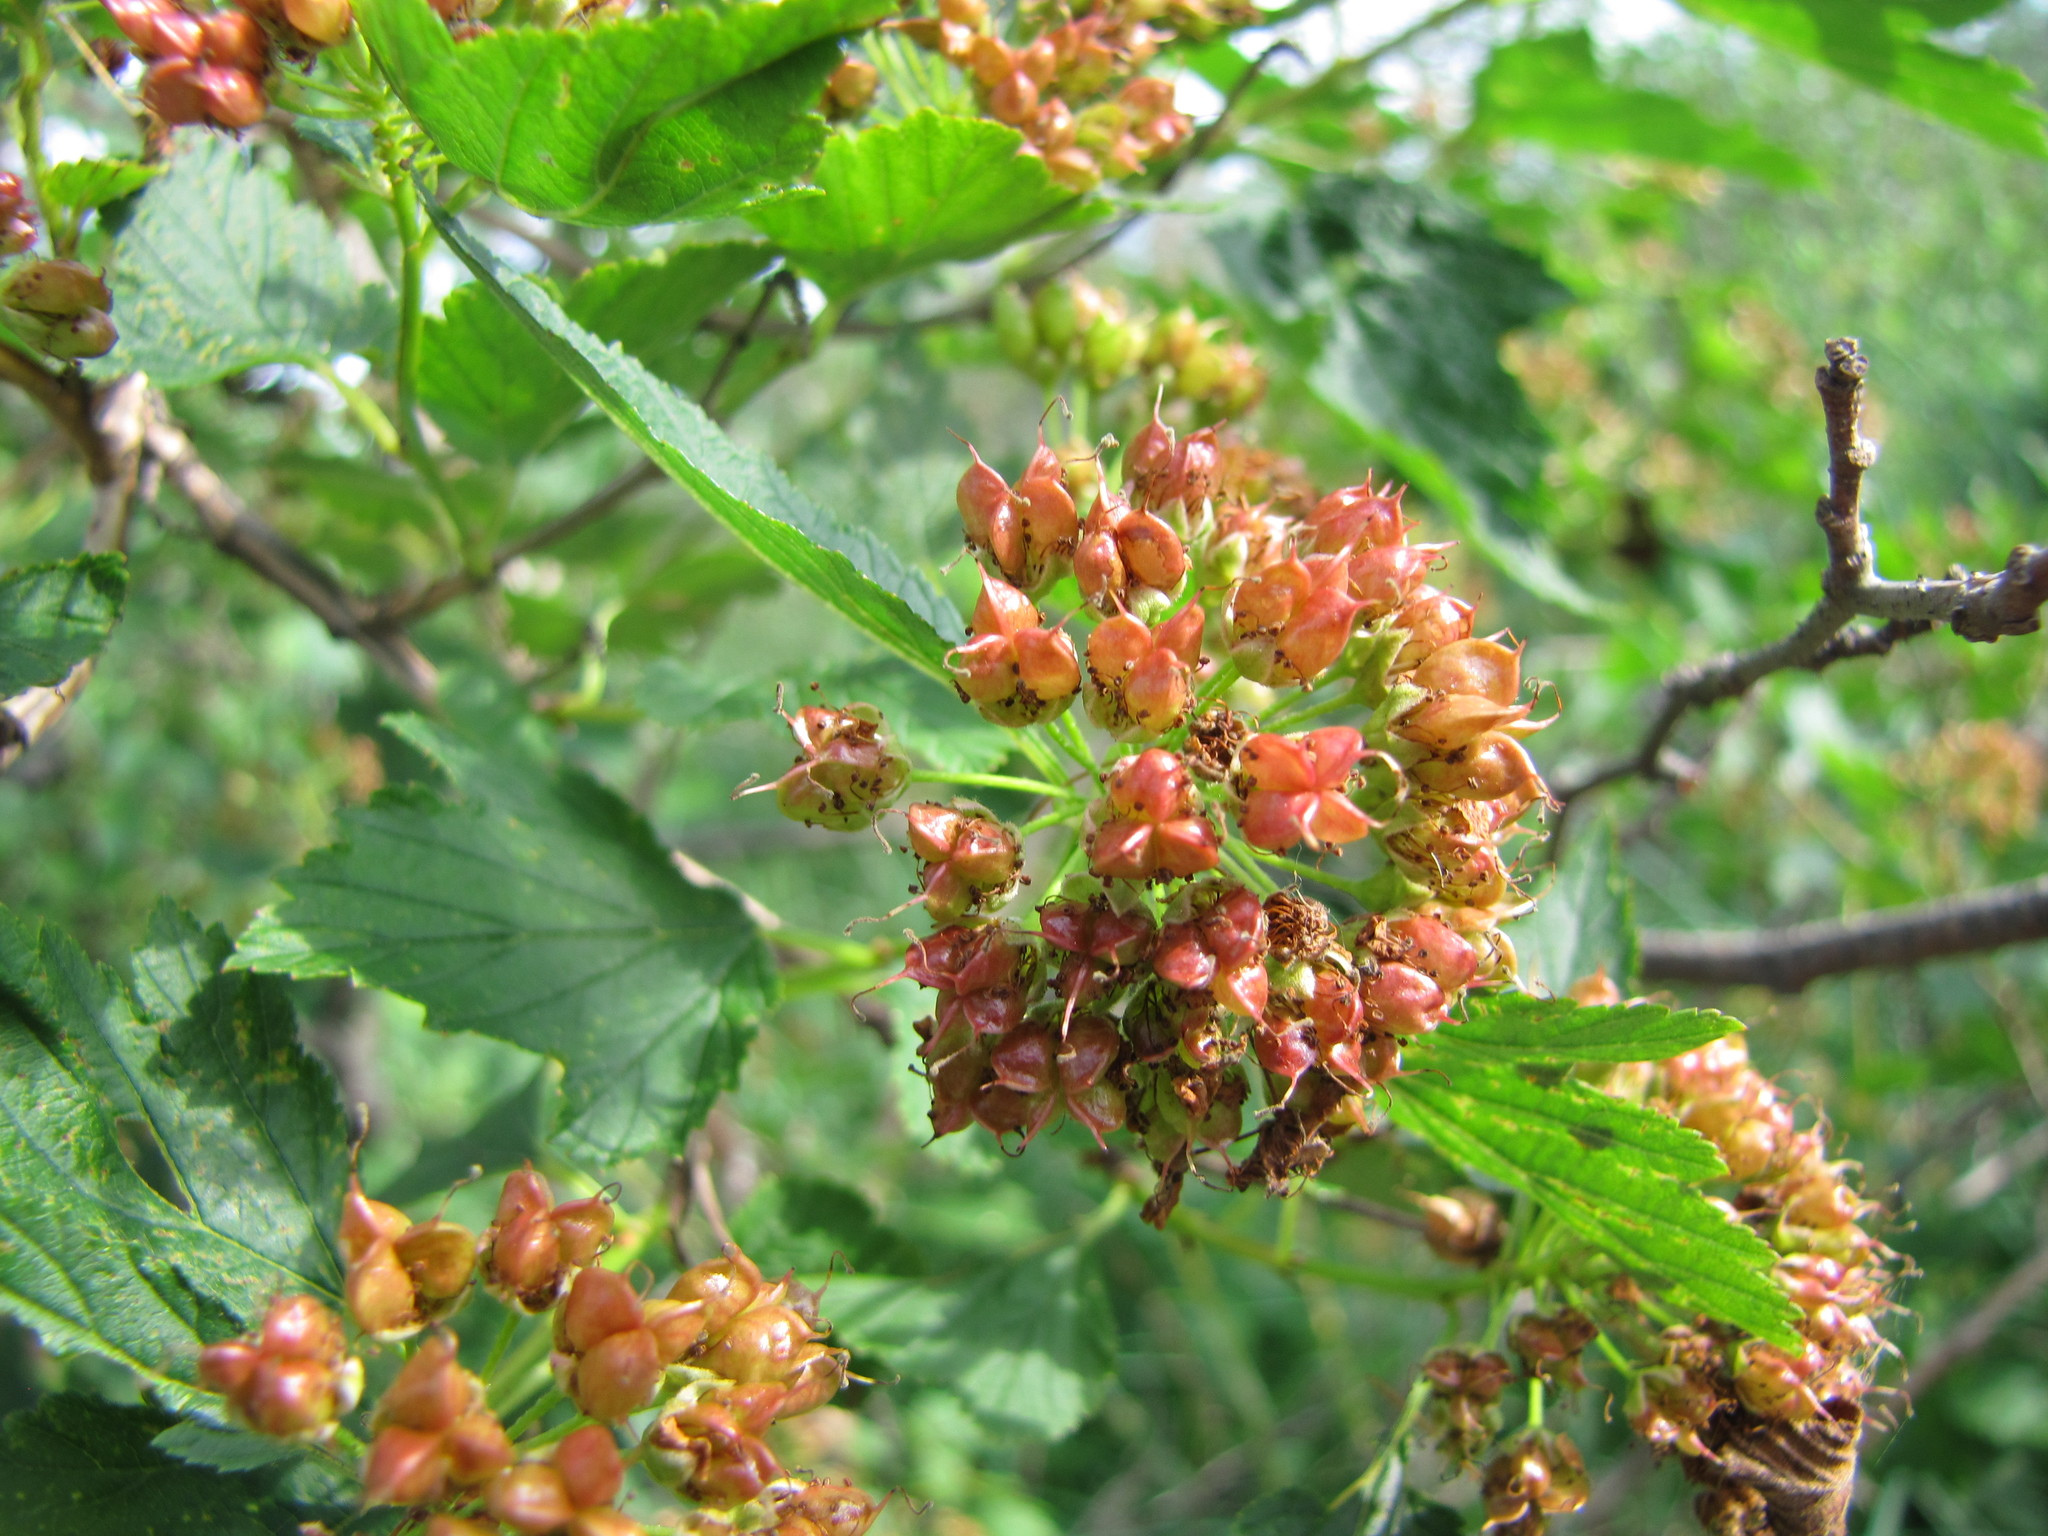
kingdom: Plantae
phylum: Tracheophyta
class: Magnoliopsida
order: Rosales
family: Rosaceae
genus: Physocarpus
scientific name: Physocarpus opulifolius
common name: Ninebark
